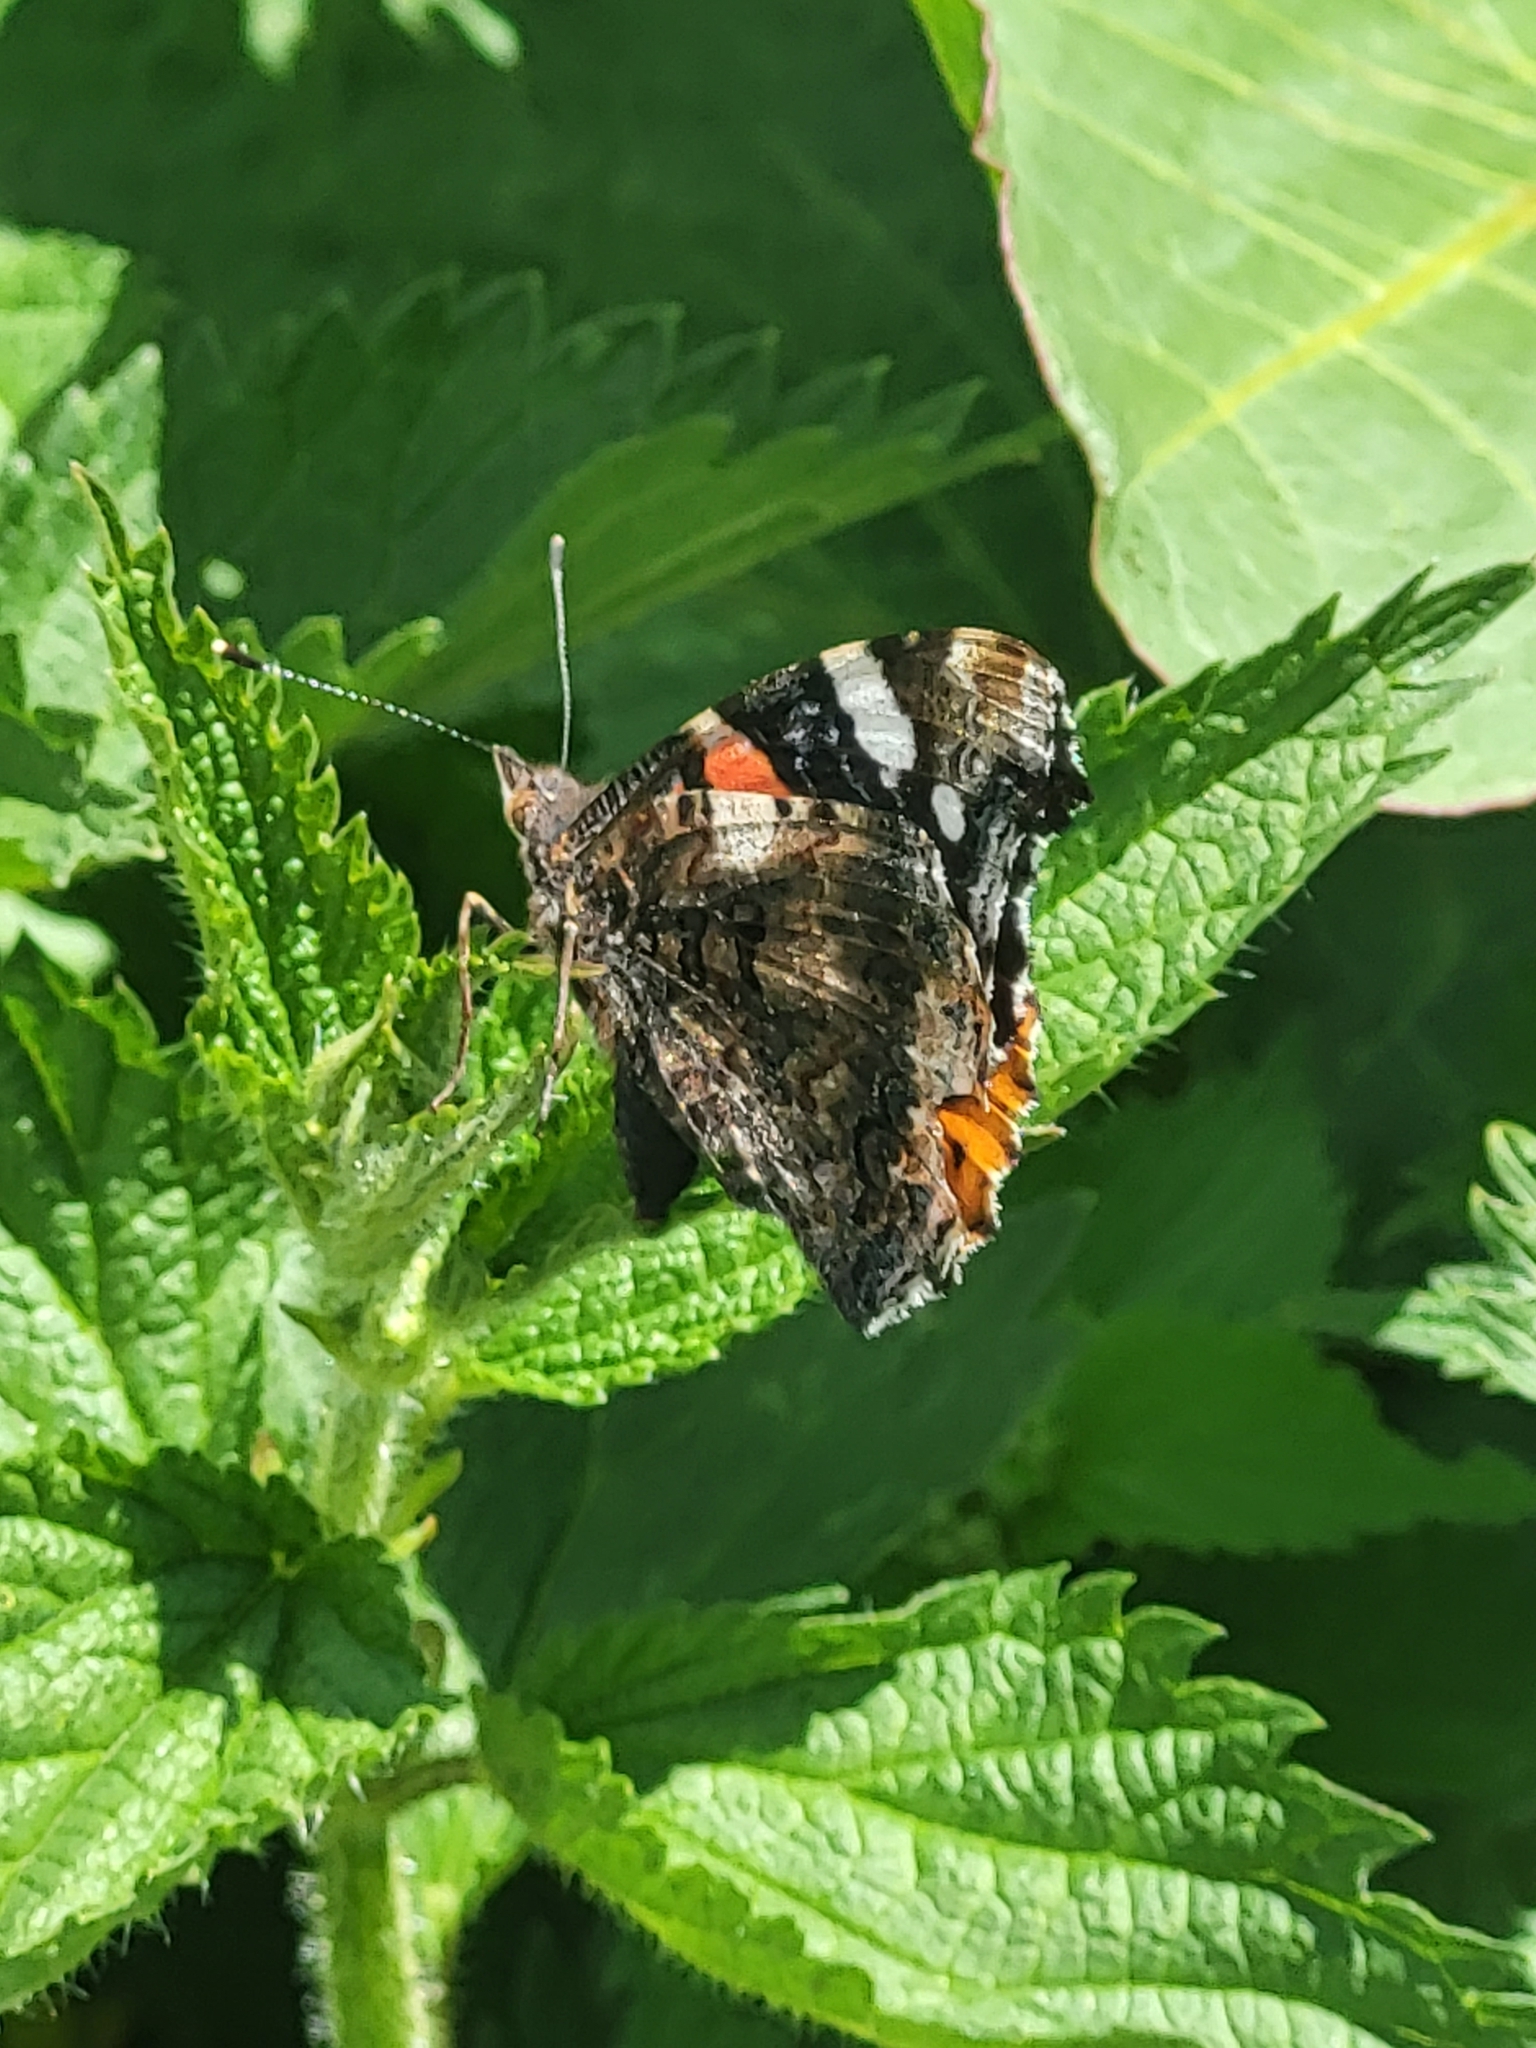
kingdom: Animalia
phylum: Arthropoda
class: Insecta
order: Lepidoptera
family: Nymphalidae
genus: Vanessa
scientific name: Vanessa atalanta
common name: Red admiral
